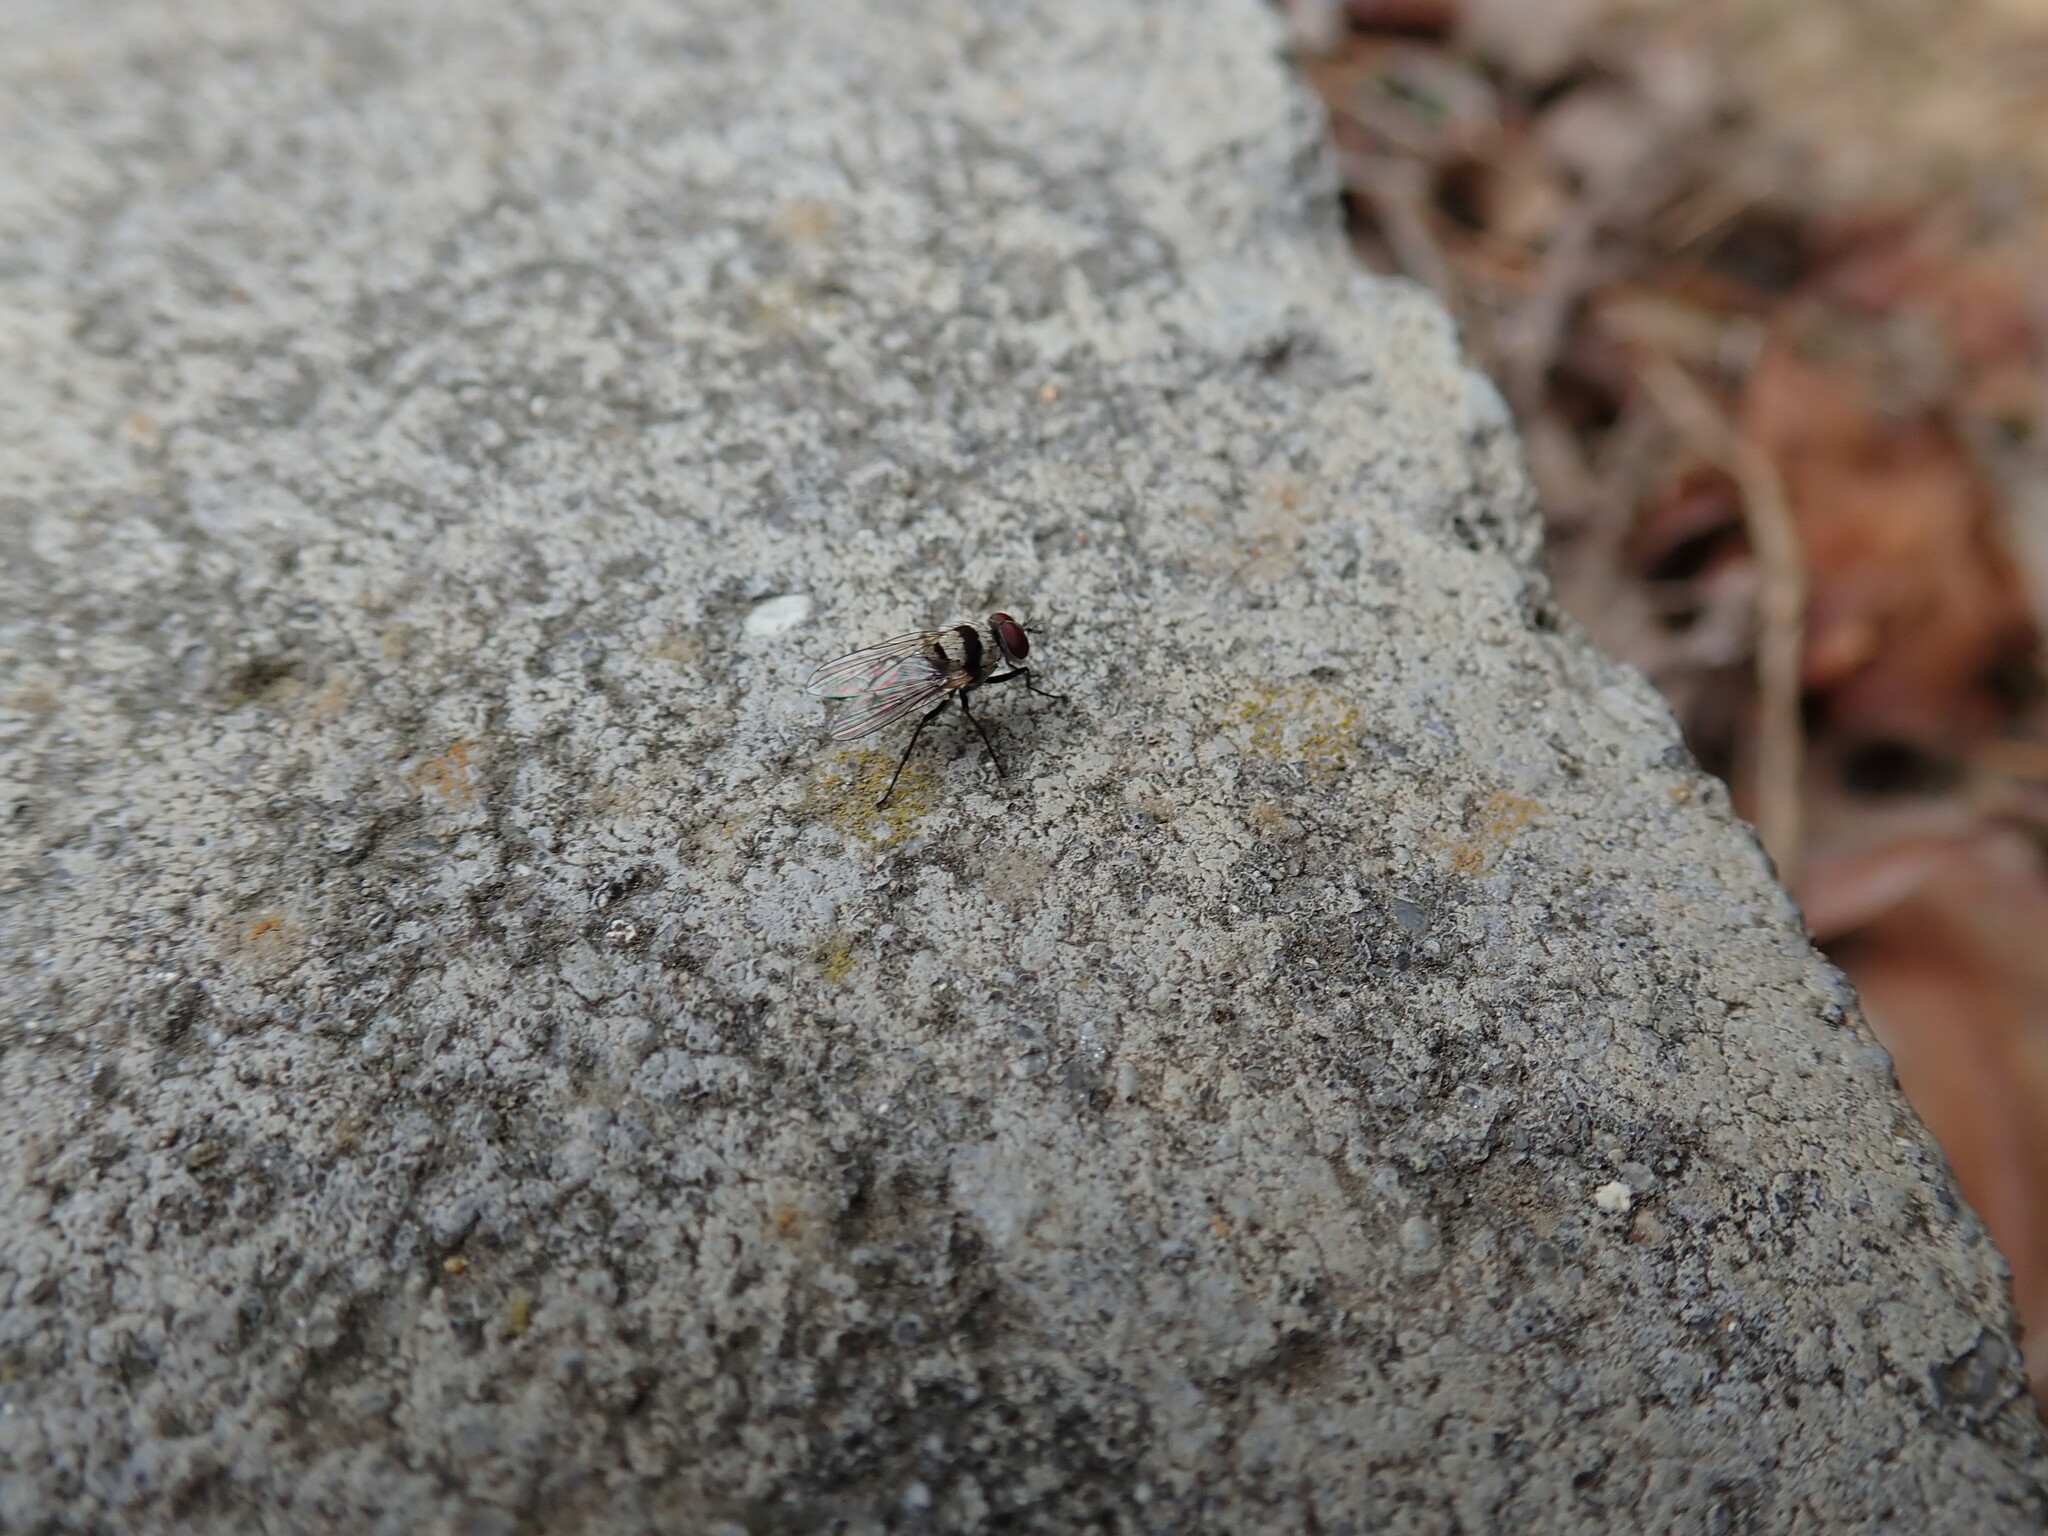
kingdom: Animalia
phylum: Arthropoda
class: Insecta
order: Diptera
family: Anthomyiidae
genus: Anthomyia
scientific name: Anthomyia illocata
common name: Fly
